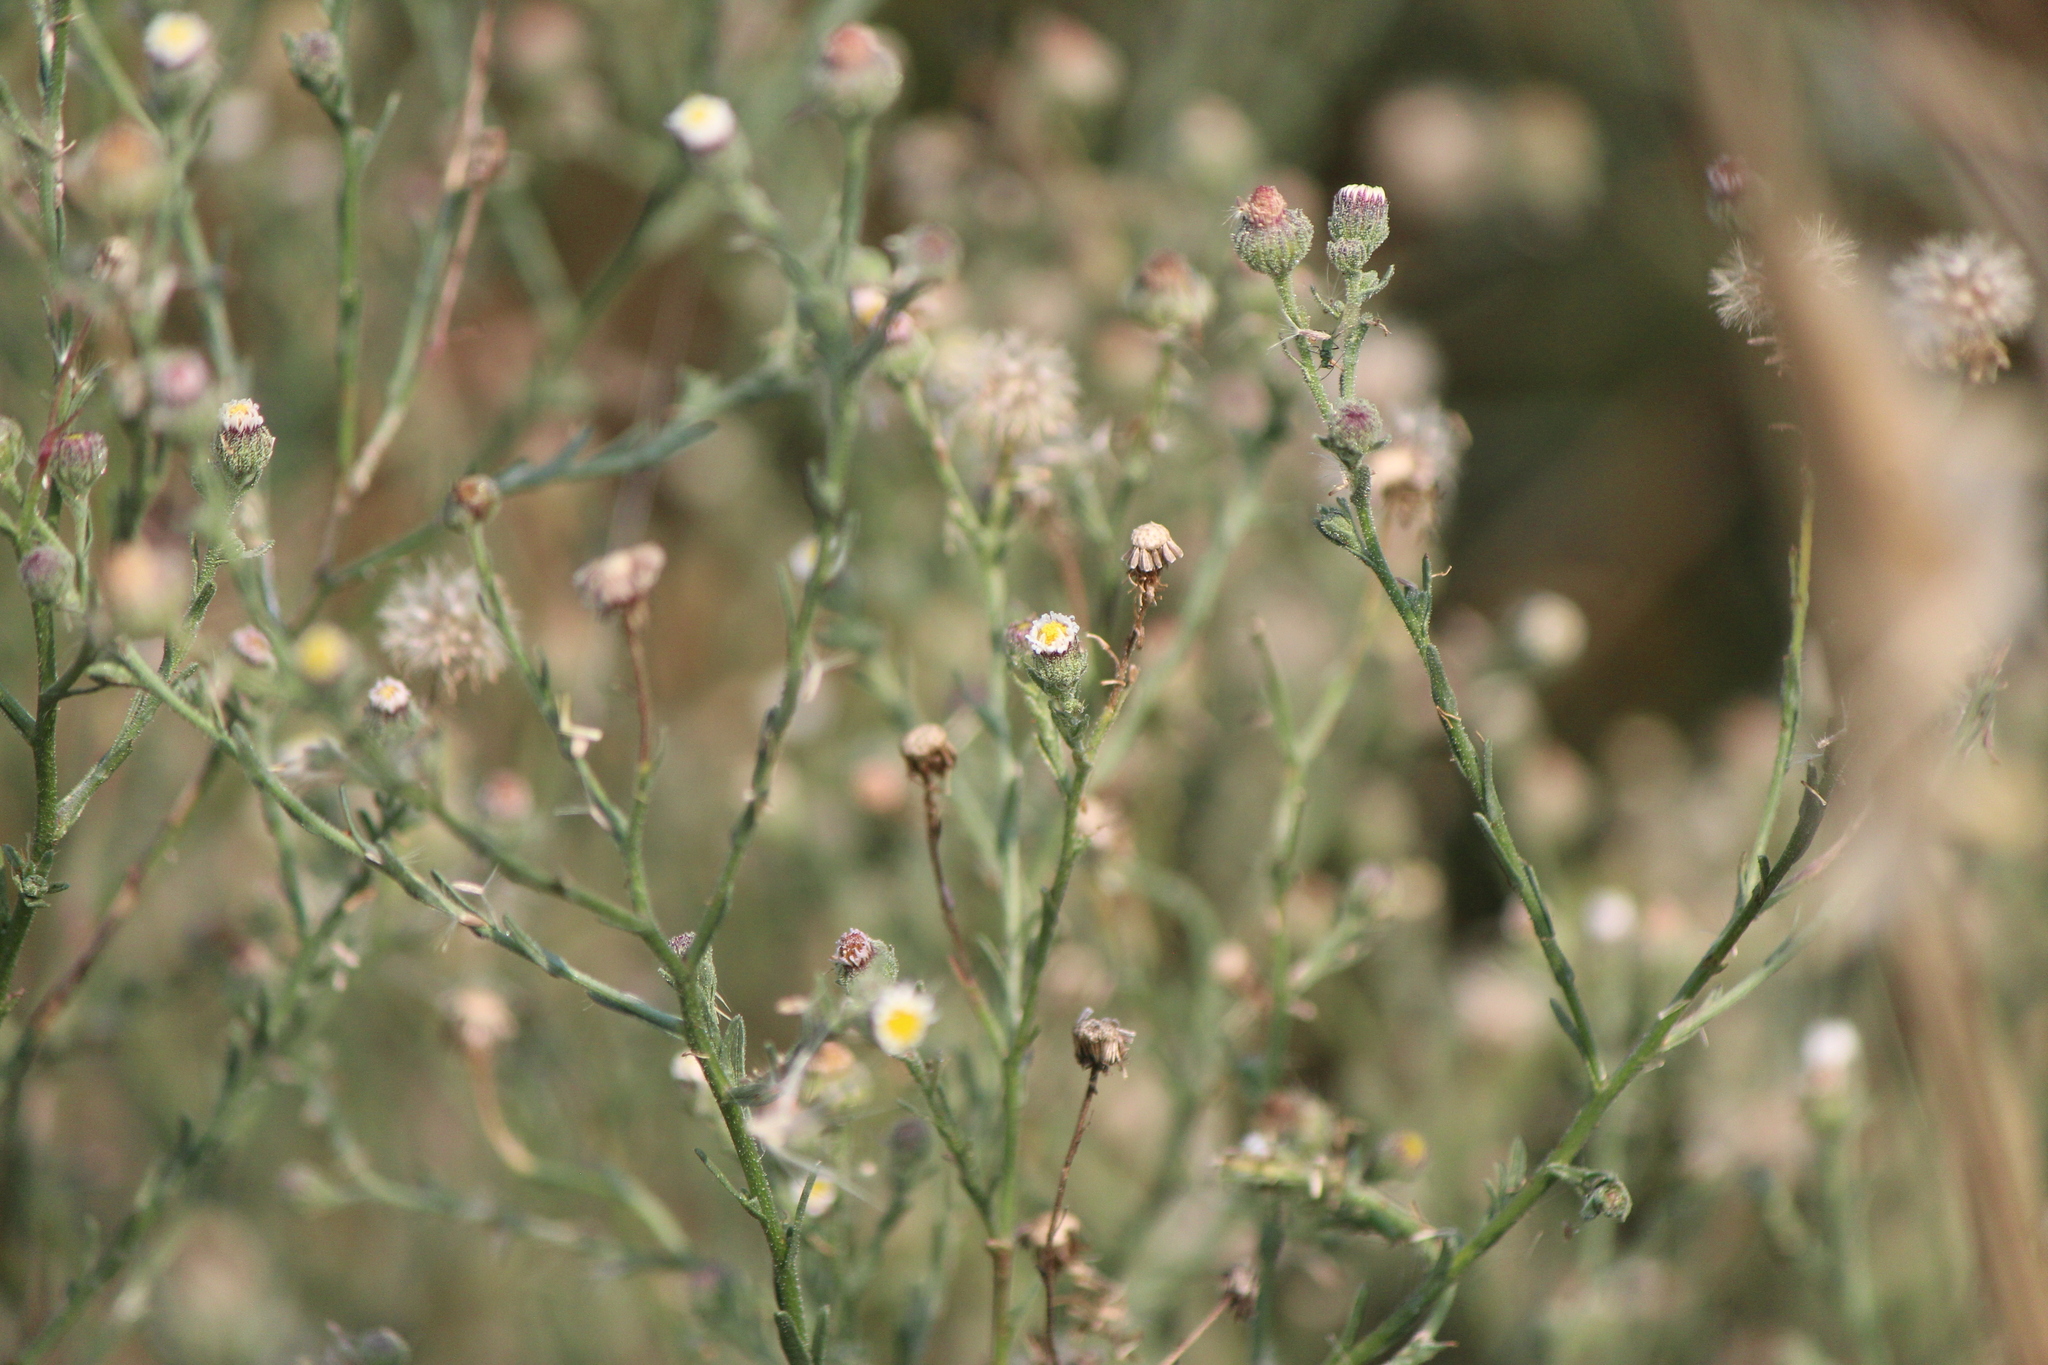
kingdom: Plantae
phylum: Tracheophyta
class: Magnoliopsida
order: Asterales
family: Asteraceae
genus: Psilactis
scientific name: Psilactis brevilingulata
